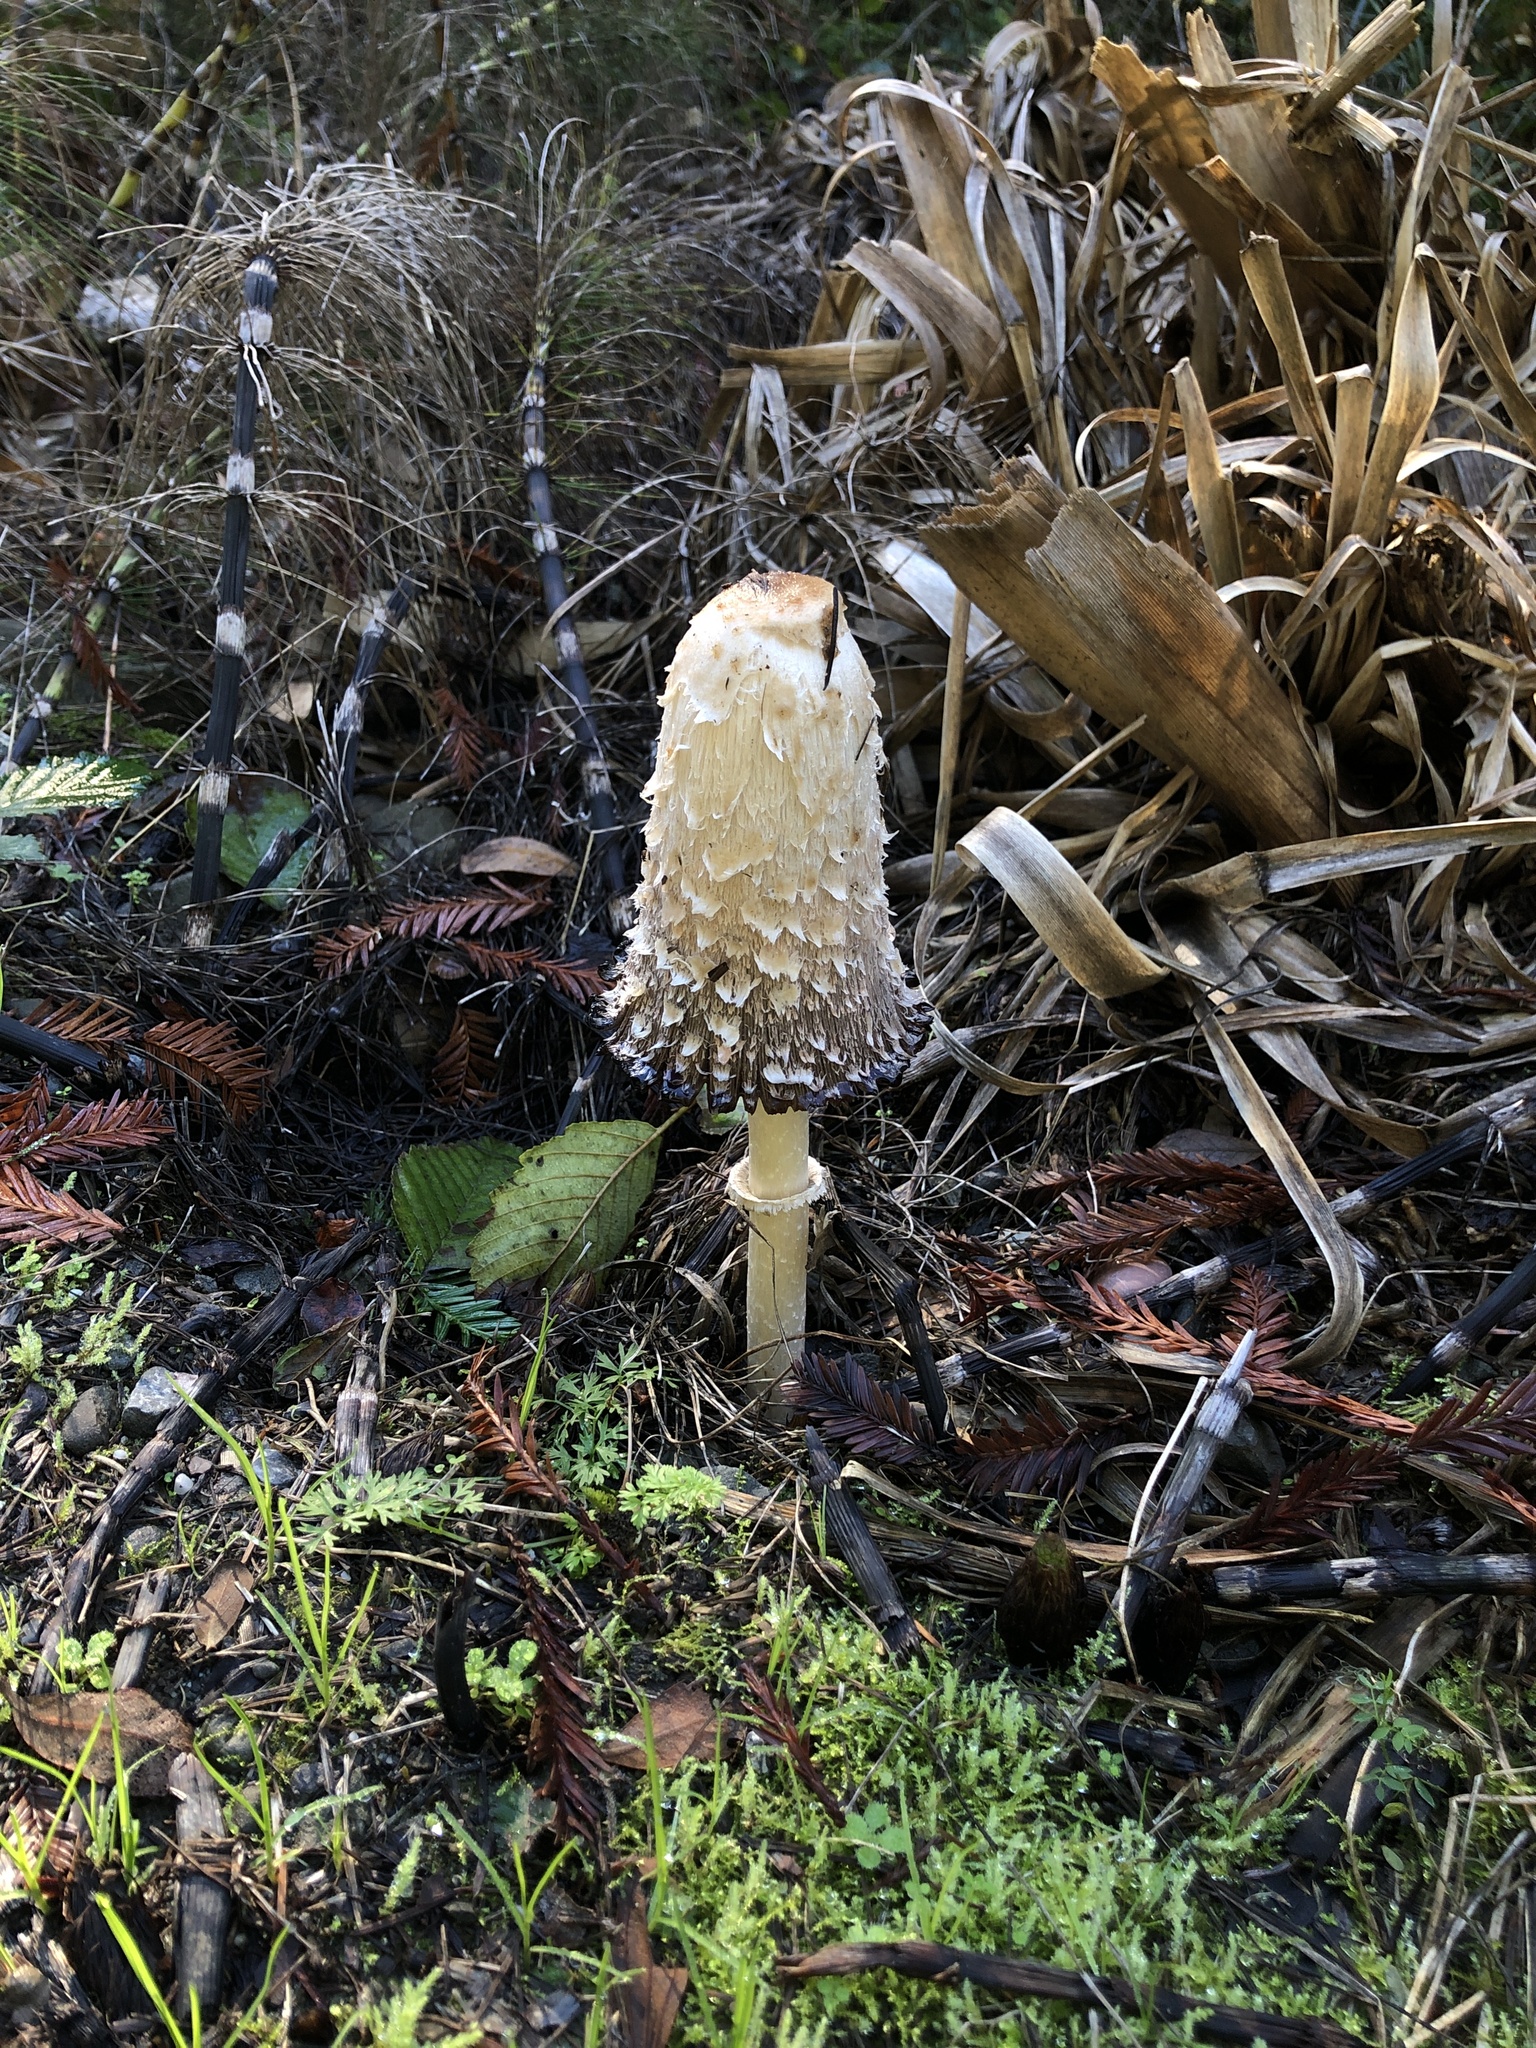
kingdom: Fungi
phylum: Basidiomycota
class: Agaricomycetes
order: Agaricales
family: Agaricaceae
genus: Coprinus
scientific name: Coprinus comatus
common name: Lawyer's wig
